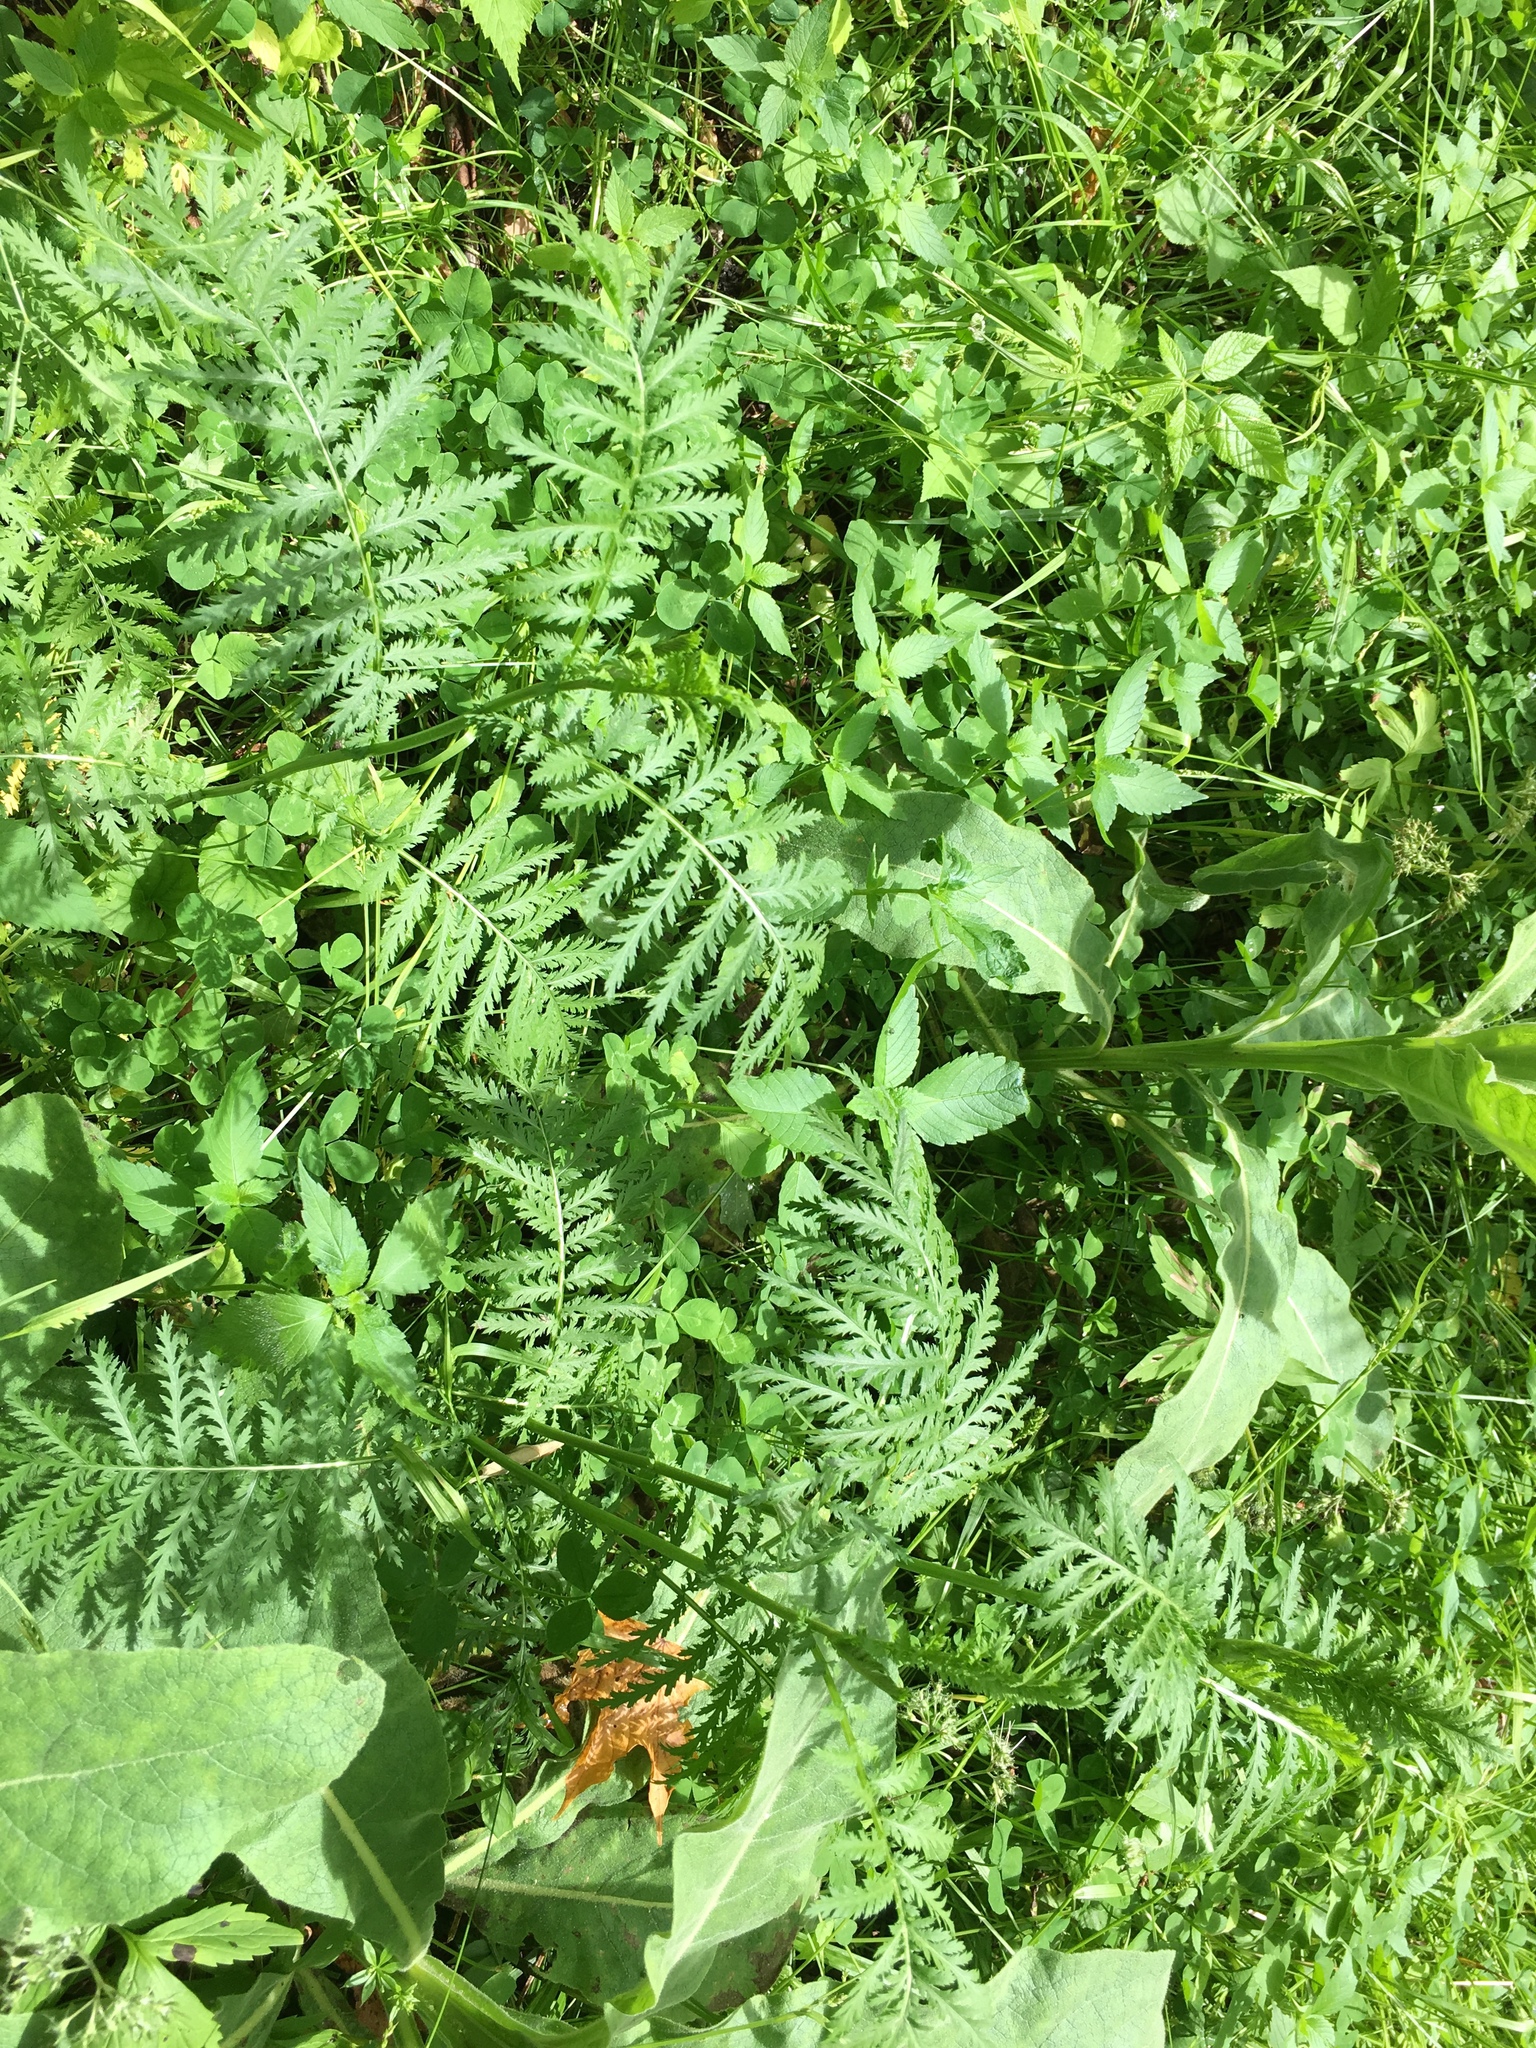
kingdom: Plantae
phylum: Tracheophyta
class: Magnoliopsida
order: Asterales
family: Asteraceae
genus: Tanacetum
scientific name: Tanacetum vulgare
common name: Common tansy
